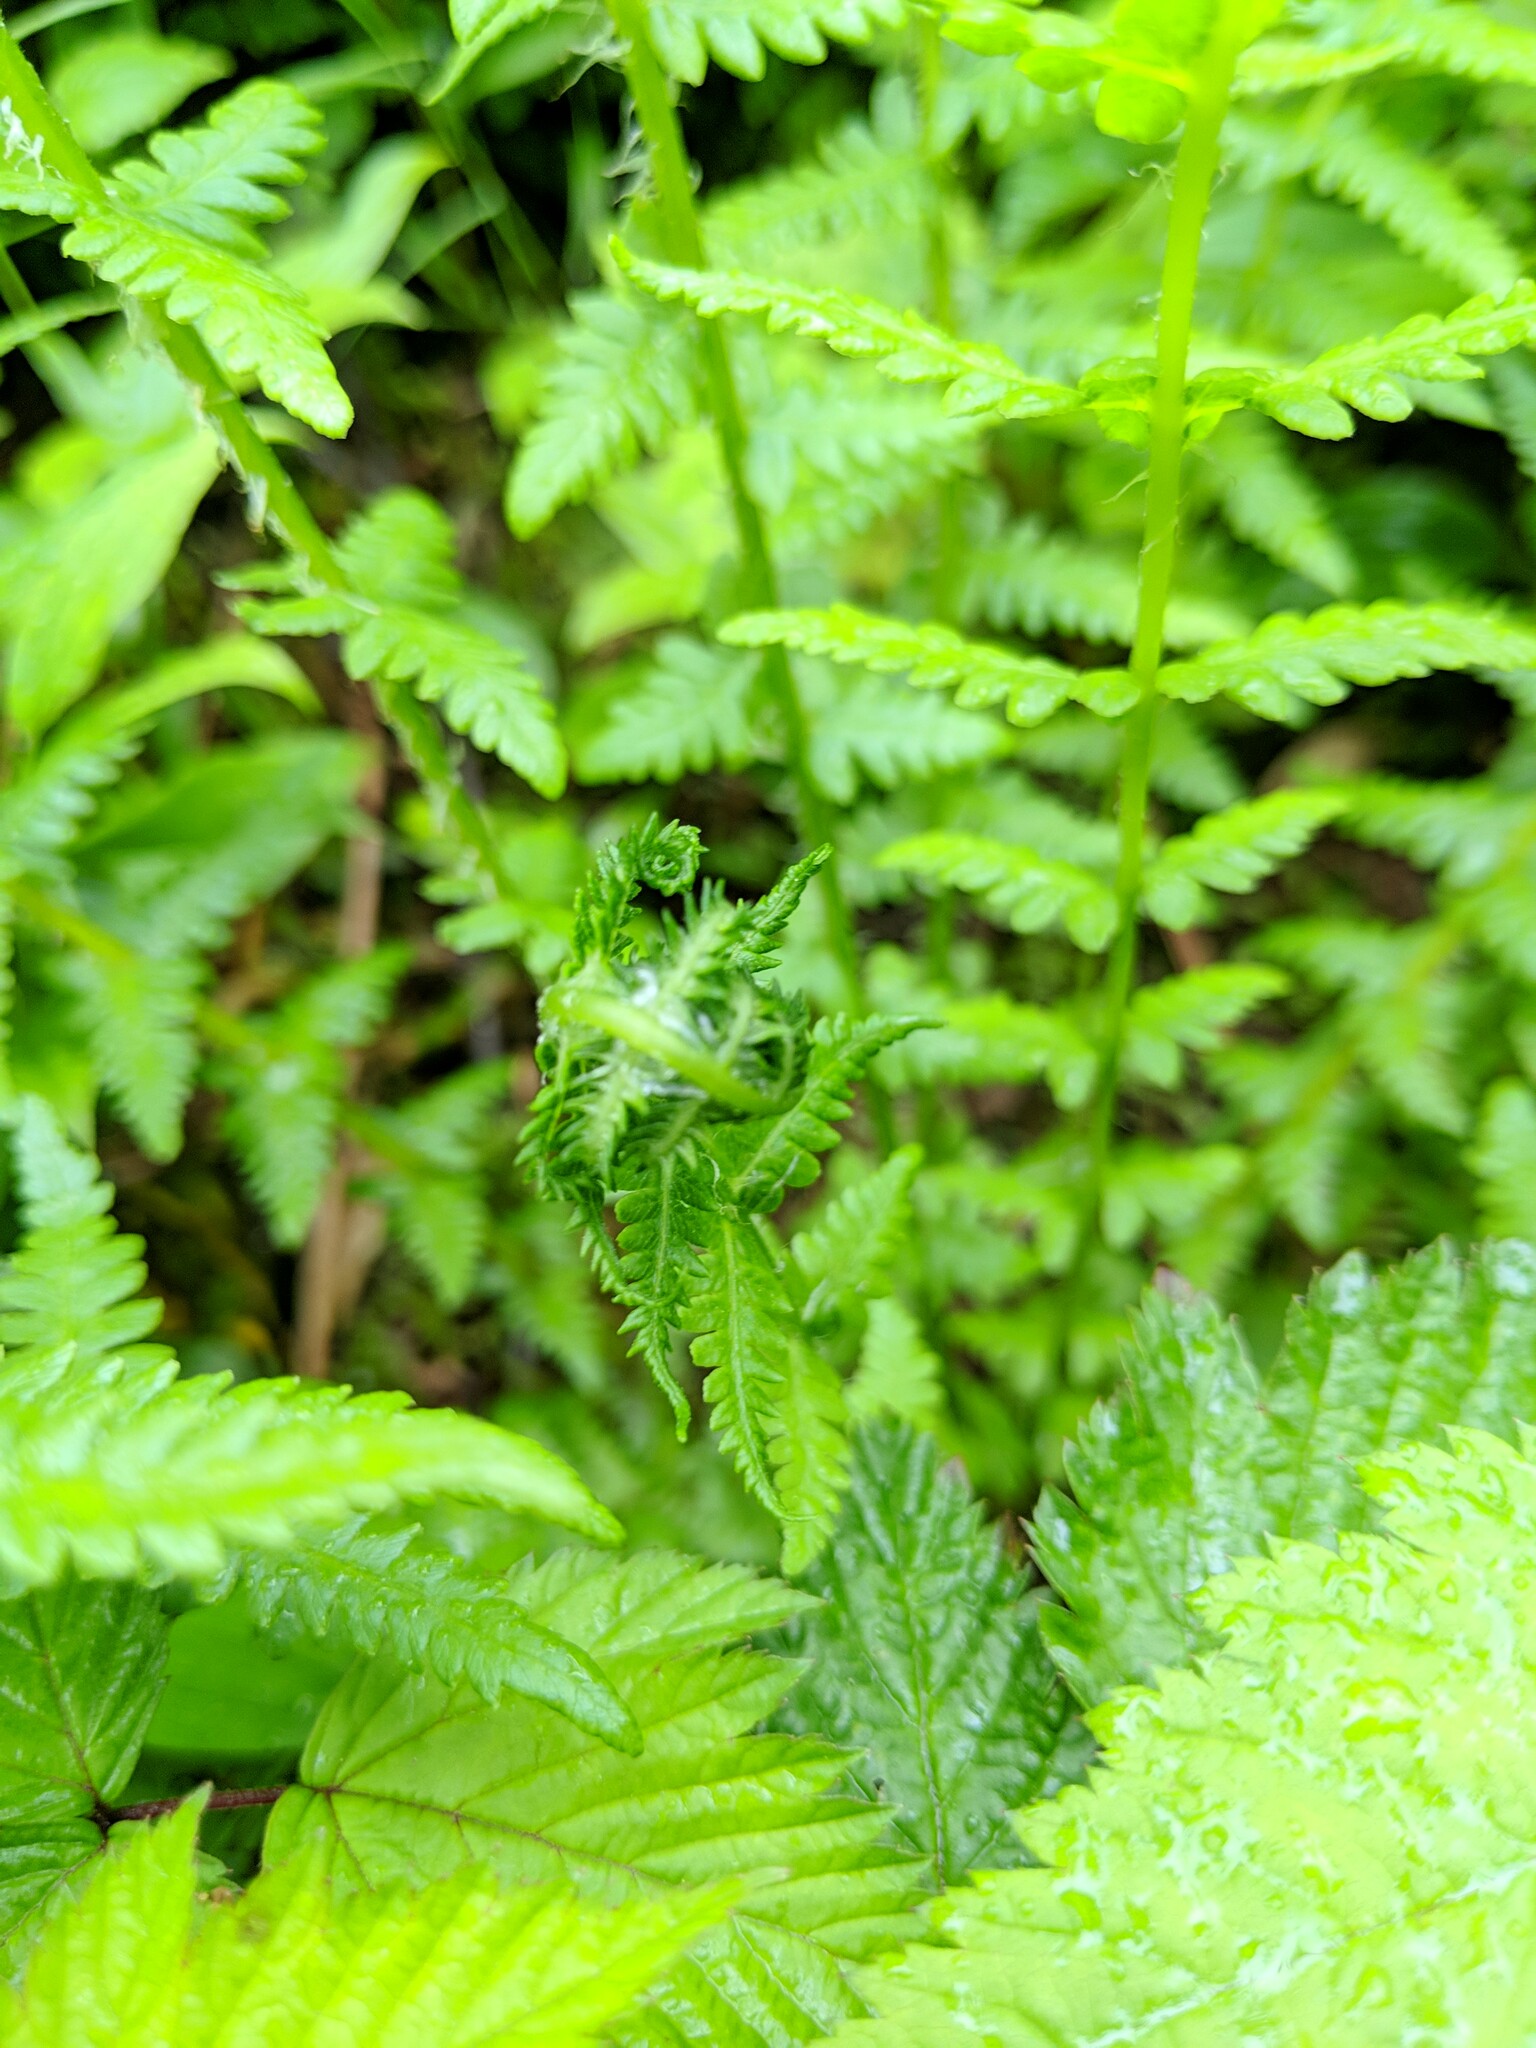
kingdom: Plantae
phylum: Tracheophyta
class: Polypodiopsida
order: Polypodiales
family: Thelypteridaceae
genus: Oreopteris
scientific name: Oreopteris quelpartensis
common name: Mountain fern
